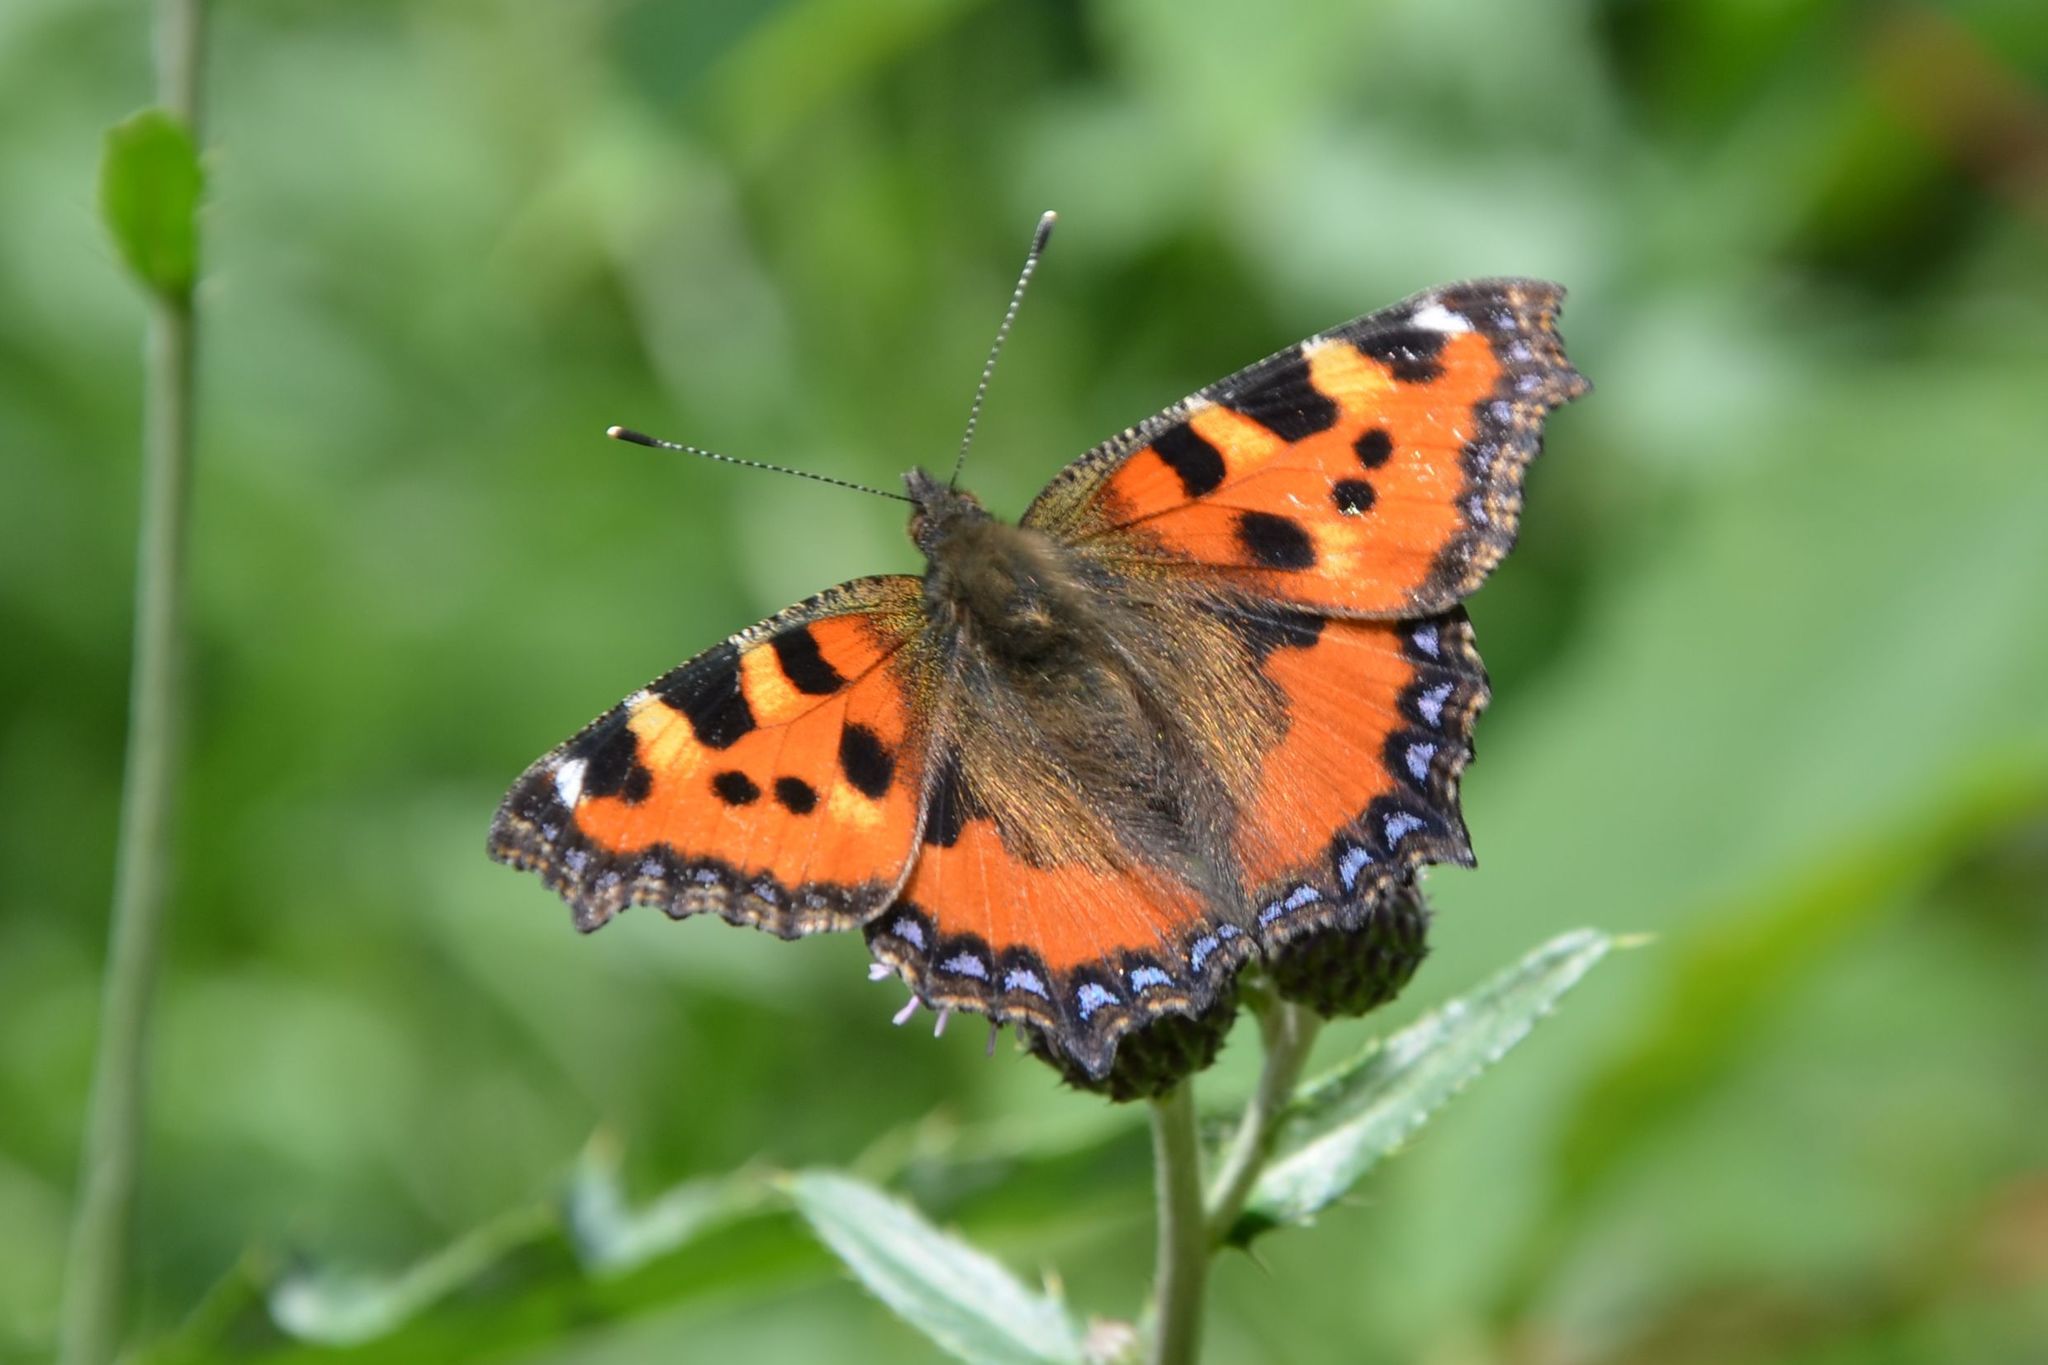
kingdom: Animalia
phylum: Arthropoda
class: Insecta
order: Lepidoptera
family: Nymphalidae
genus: Aglais
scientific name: Aglais urticae
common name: Small tortoiseshell
